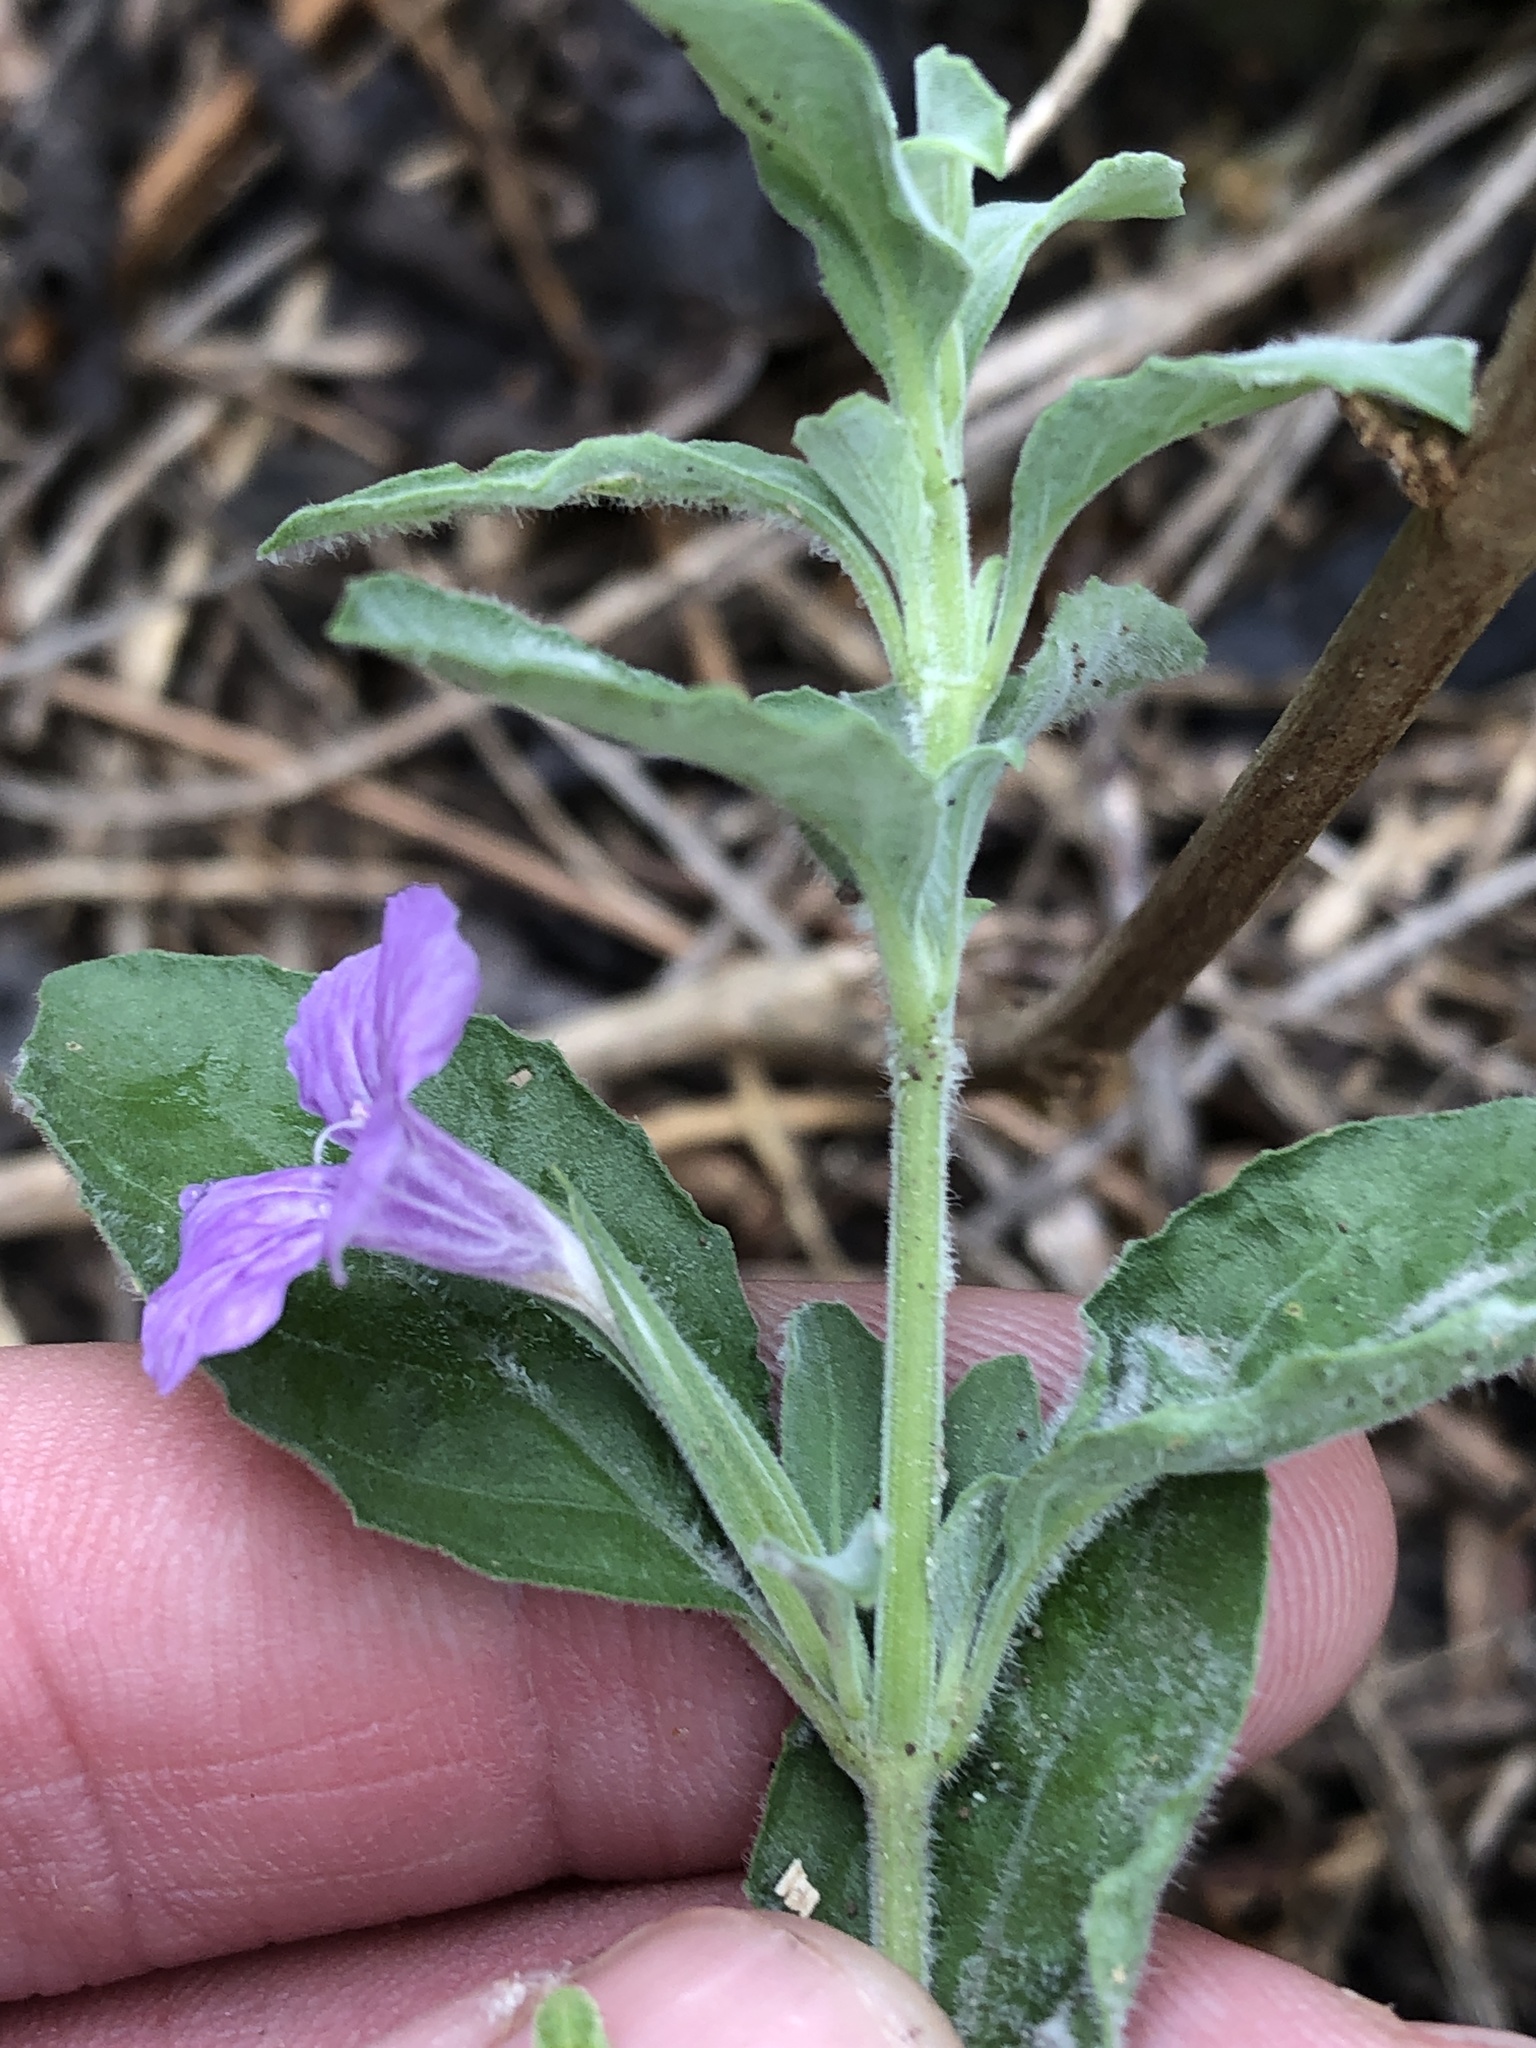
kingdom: Plantae
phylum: Tracheophyta
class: Magnoliopsida
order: Lamiales
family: Acanthaceae
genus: Dyschoriste
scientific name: Dyschoriste crenulata
